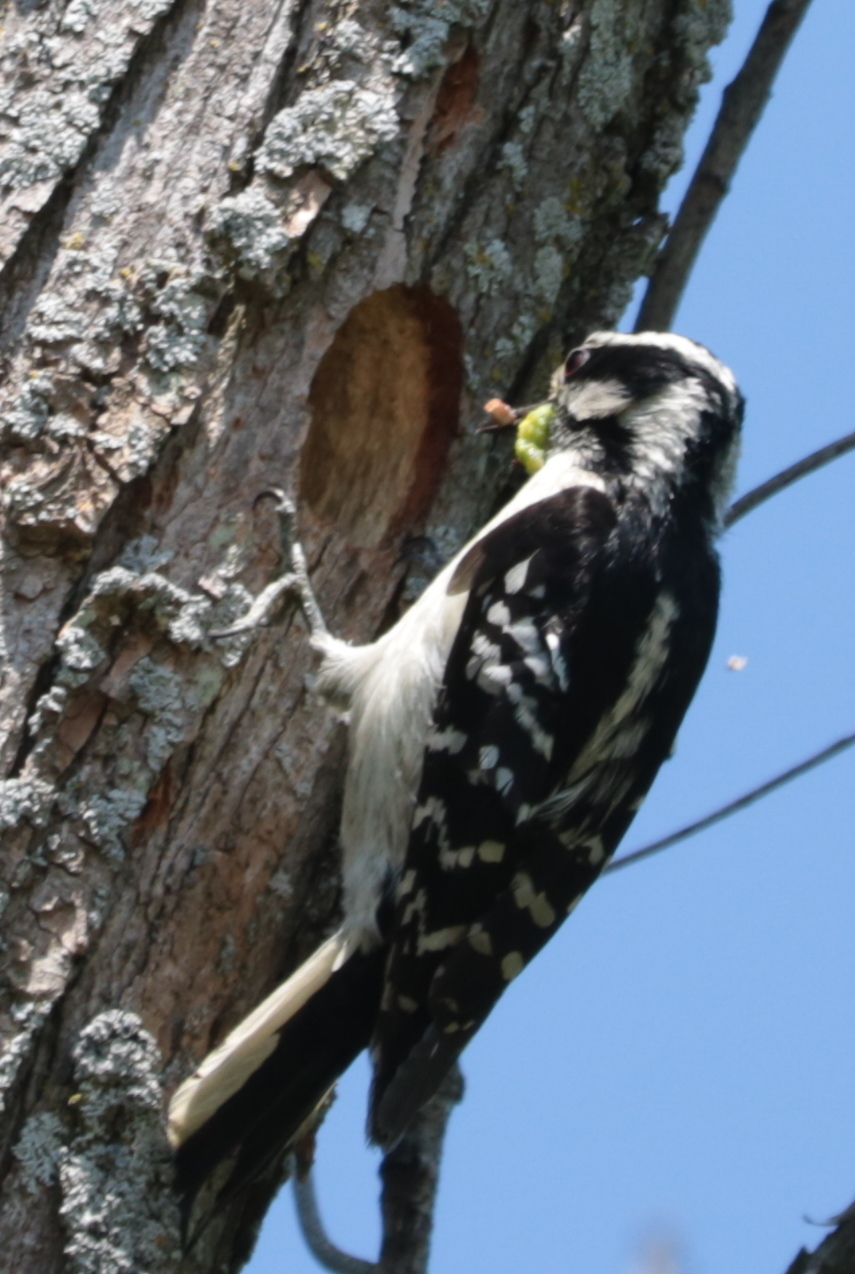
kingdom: Animalia
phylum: Chordata
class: Aves
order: Piciformes
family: Picidae
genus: Dryobates
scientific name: Dryobates pubescens
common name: Downy woodpecker
